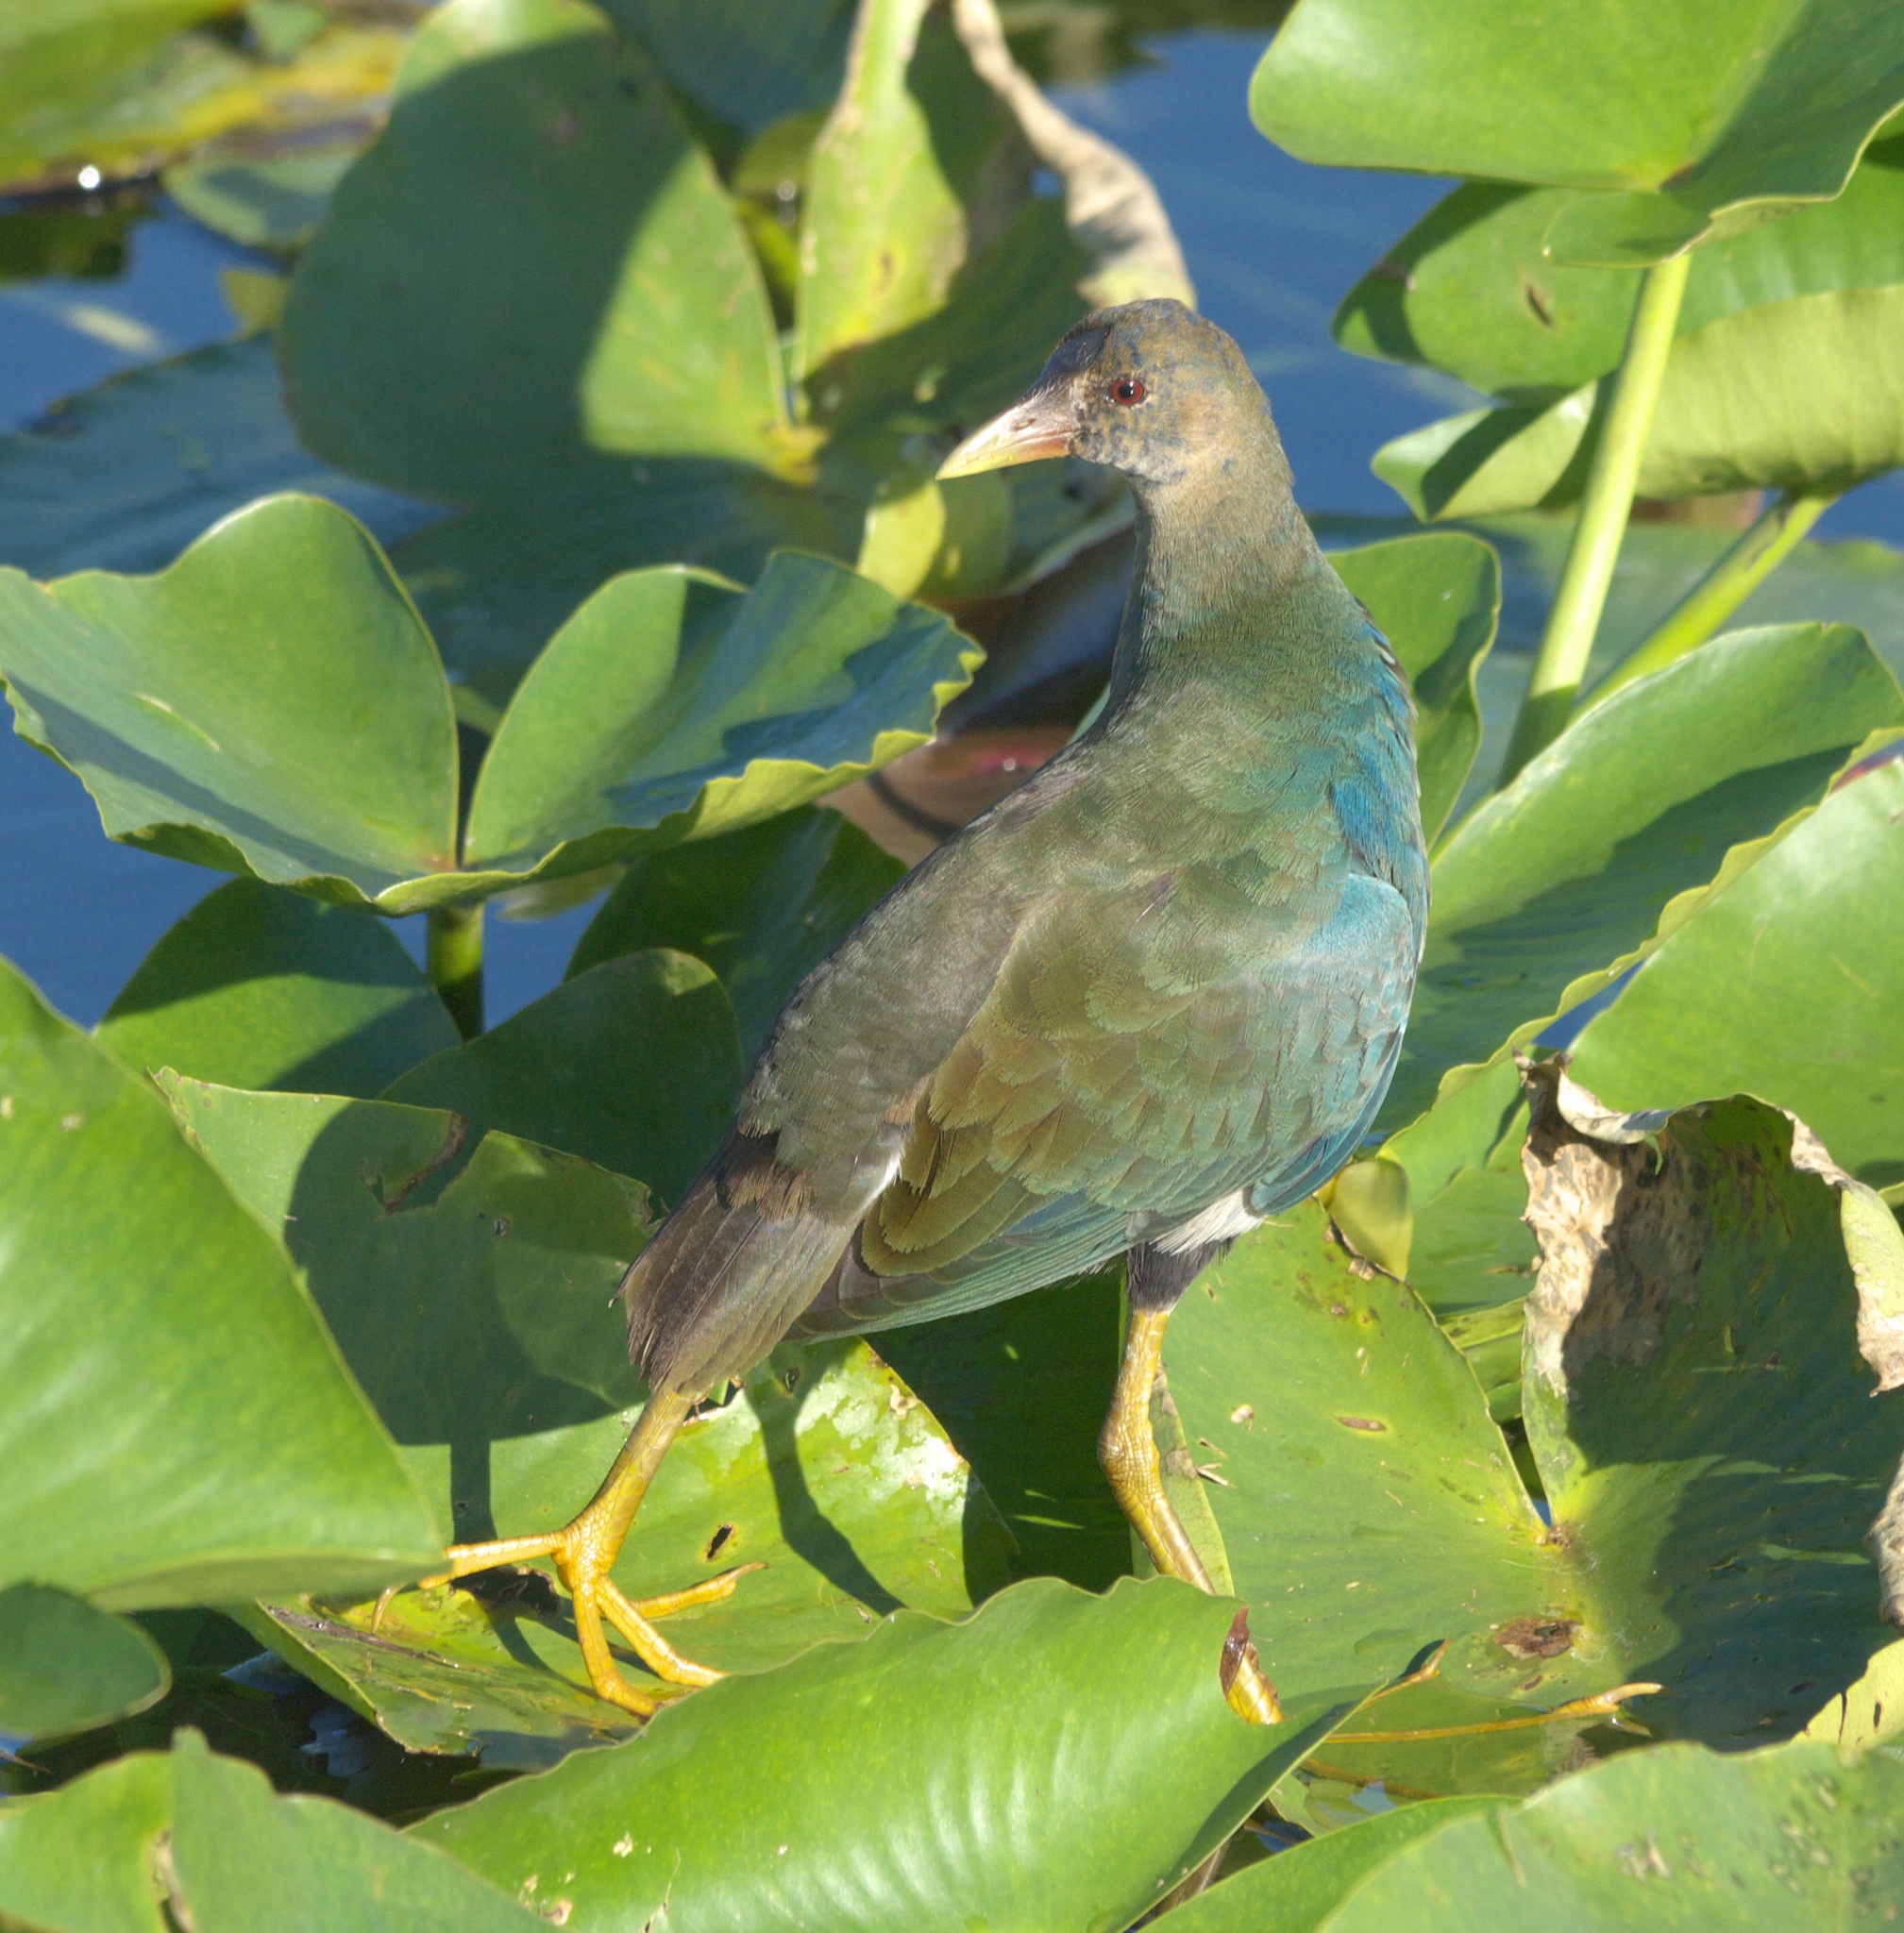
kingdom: Animalia
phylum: Chordata
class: Aves
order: Gruiformes
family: Rallidae
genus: Porphyrio
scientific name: Porphyrio martinica
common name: Purple gallinule
